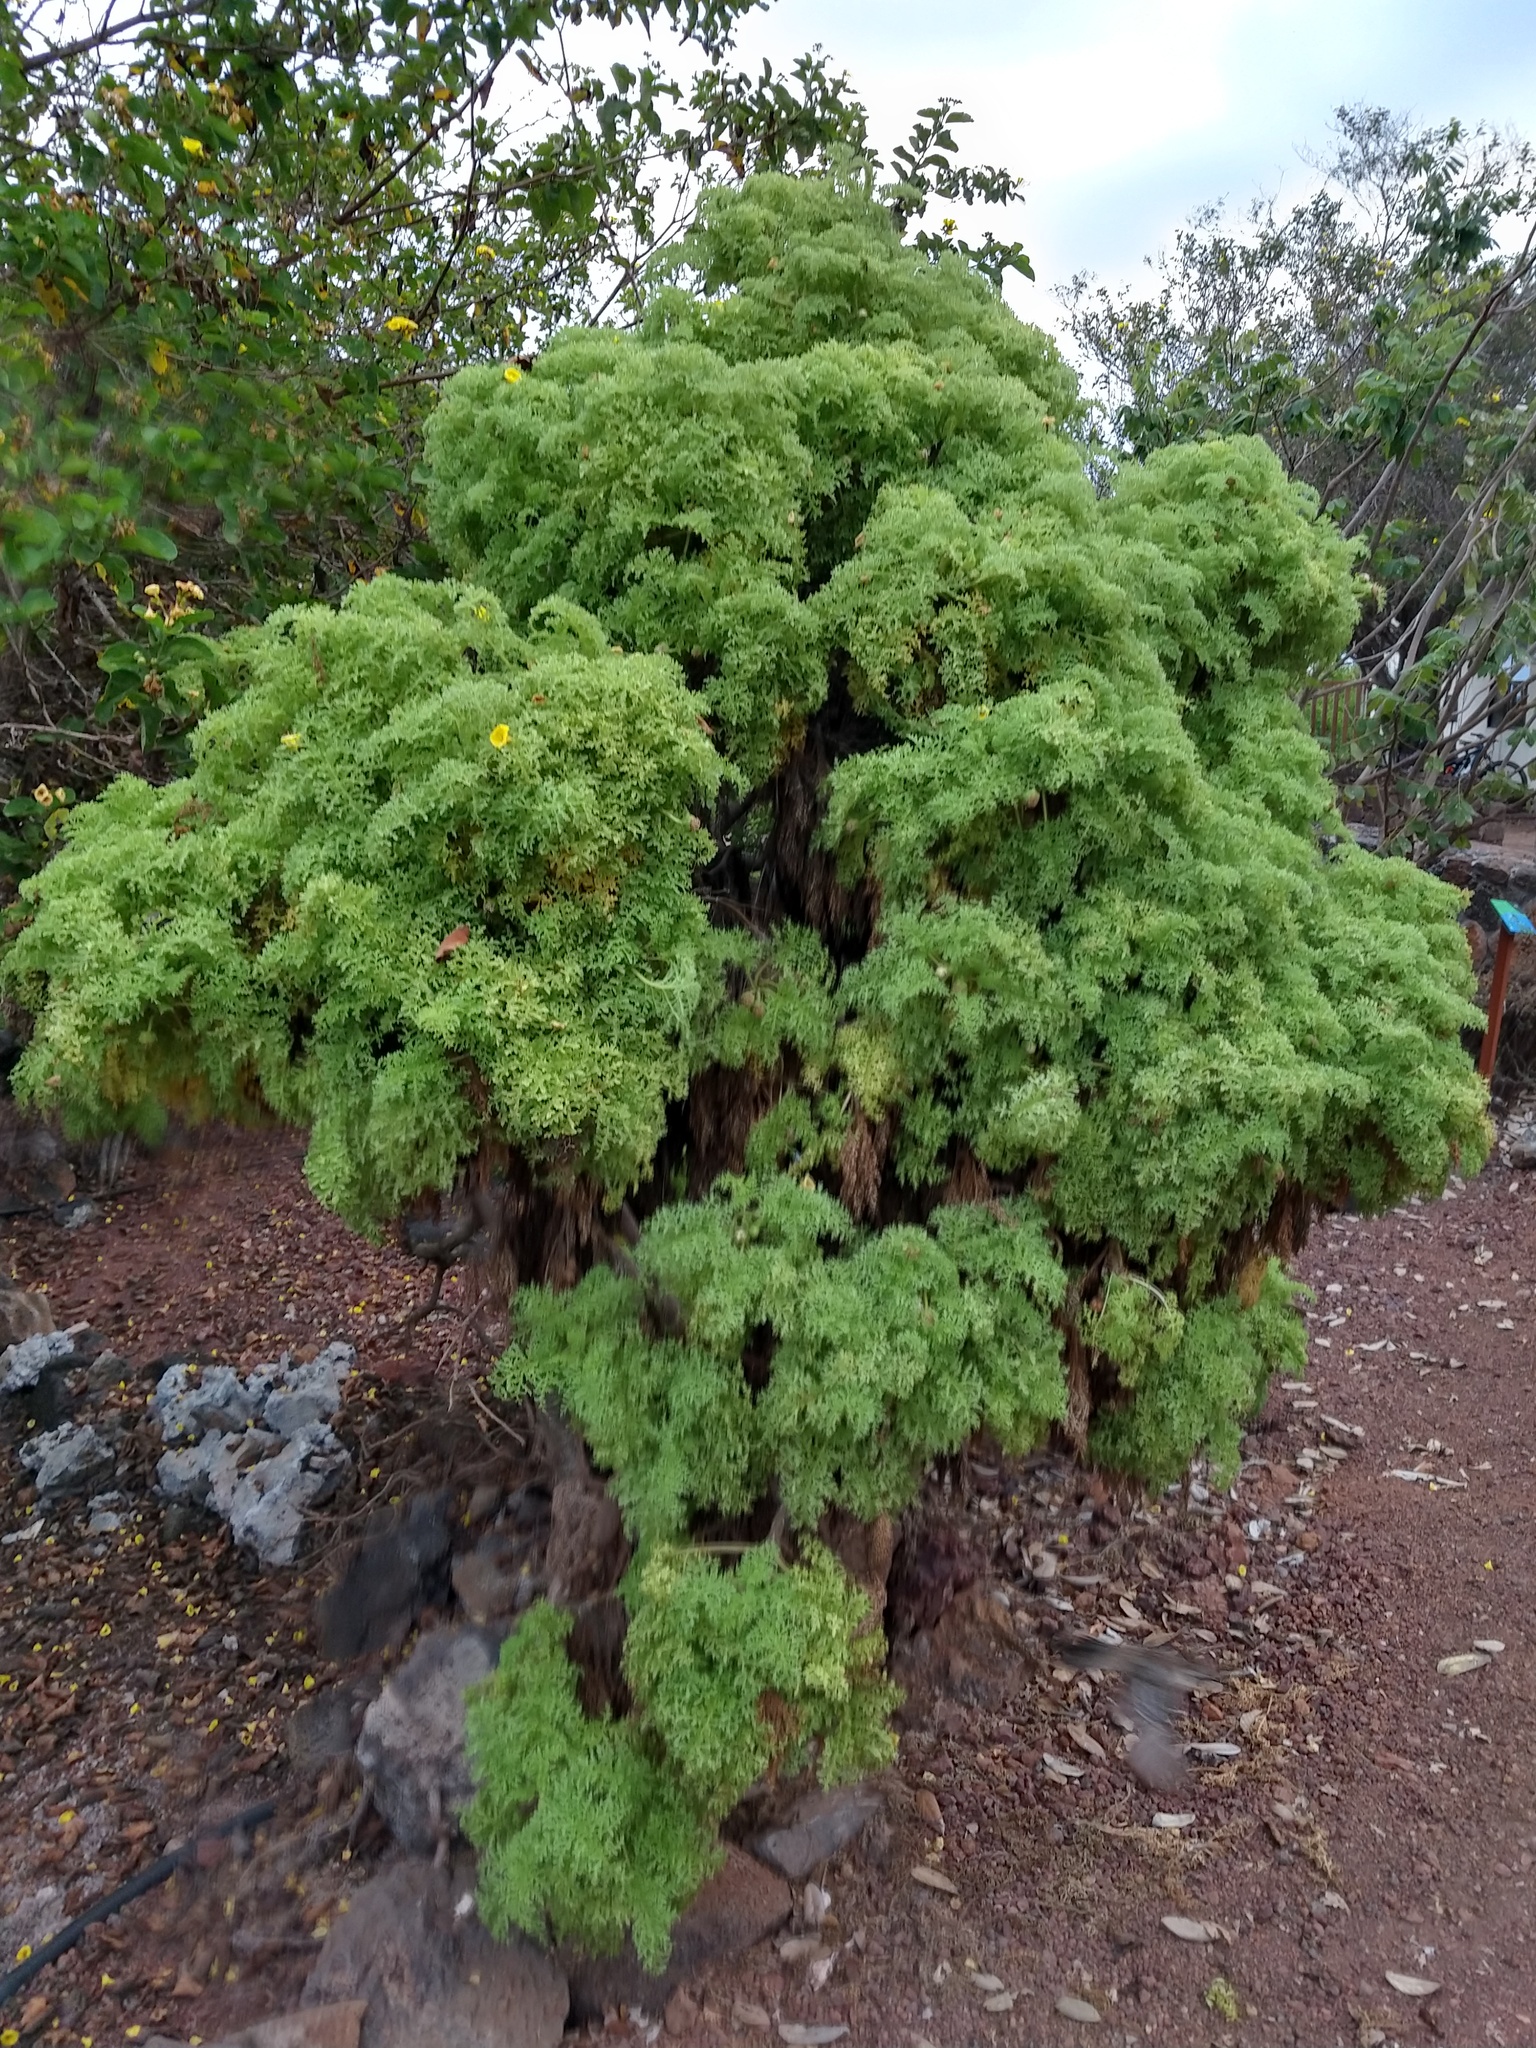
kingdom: Plantae
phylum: Tracheophyta
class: Magnoliopsida
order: Asterales
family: Asteraceae
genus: Scalesia
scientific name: Scalesia helleri
